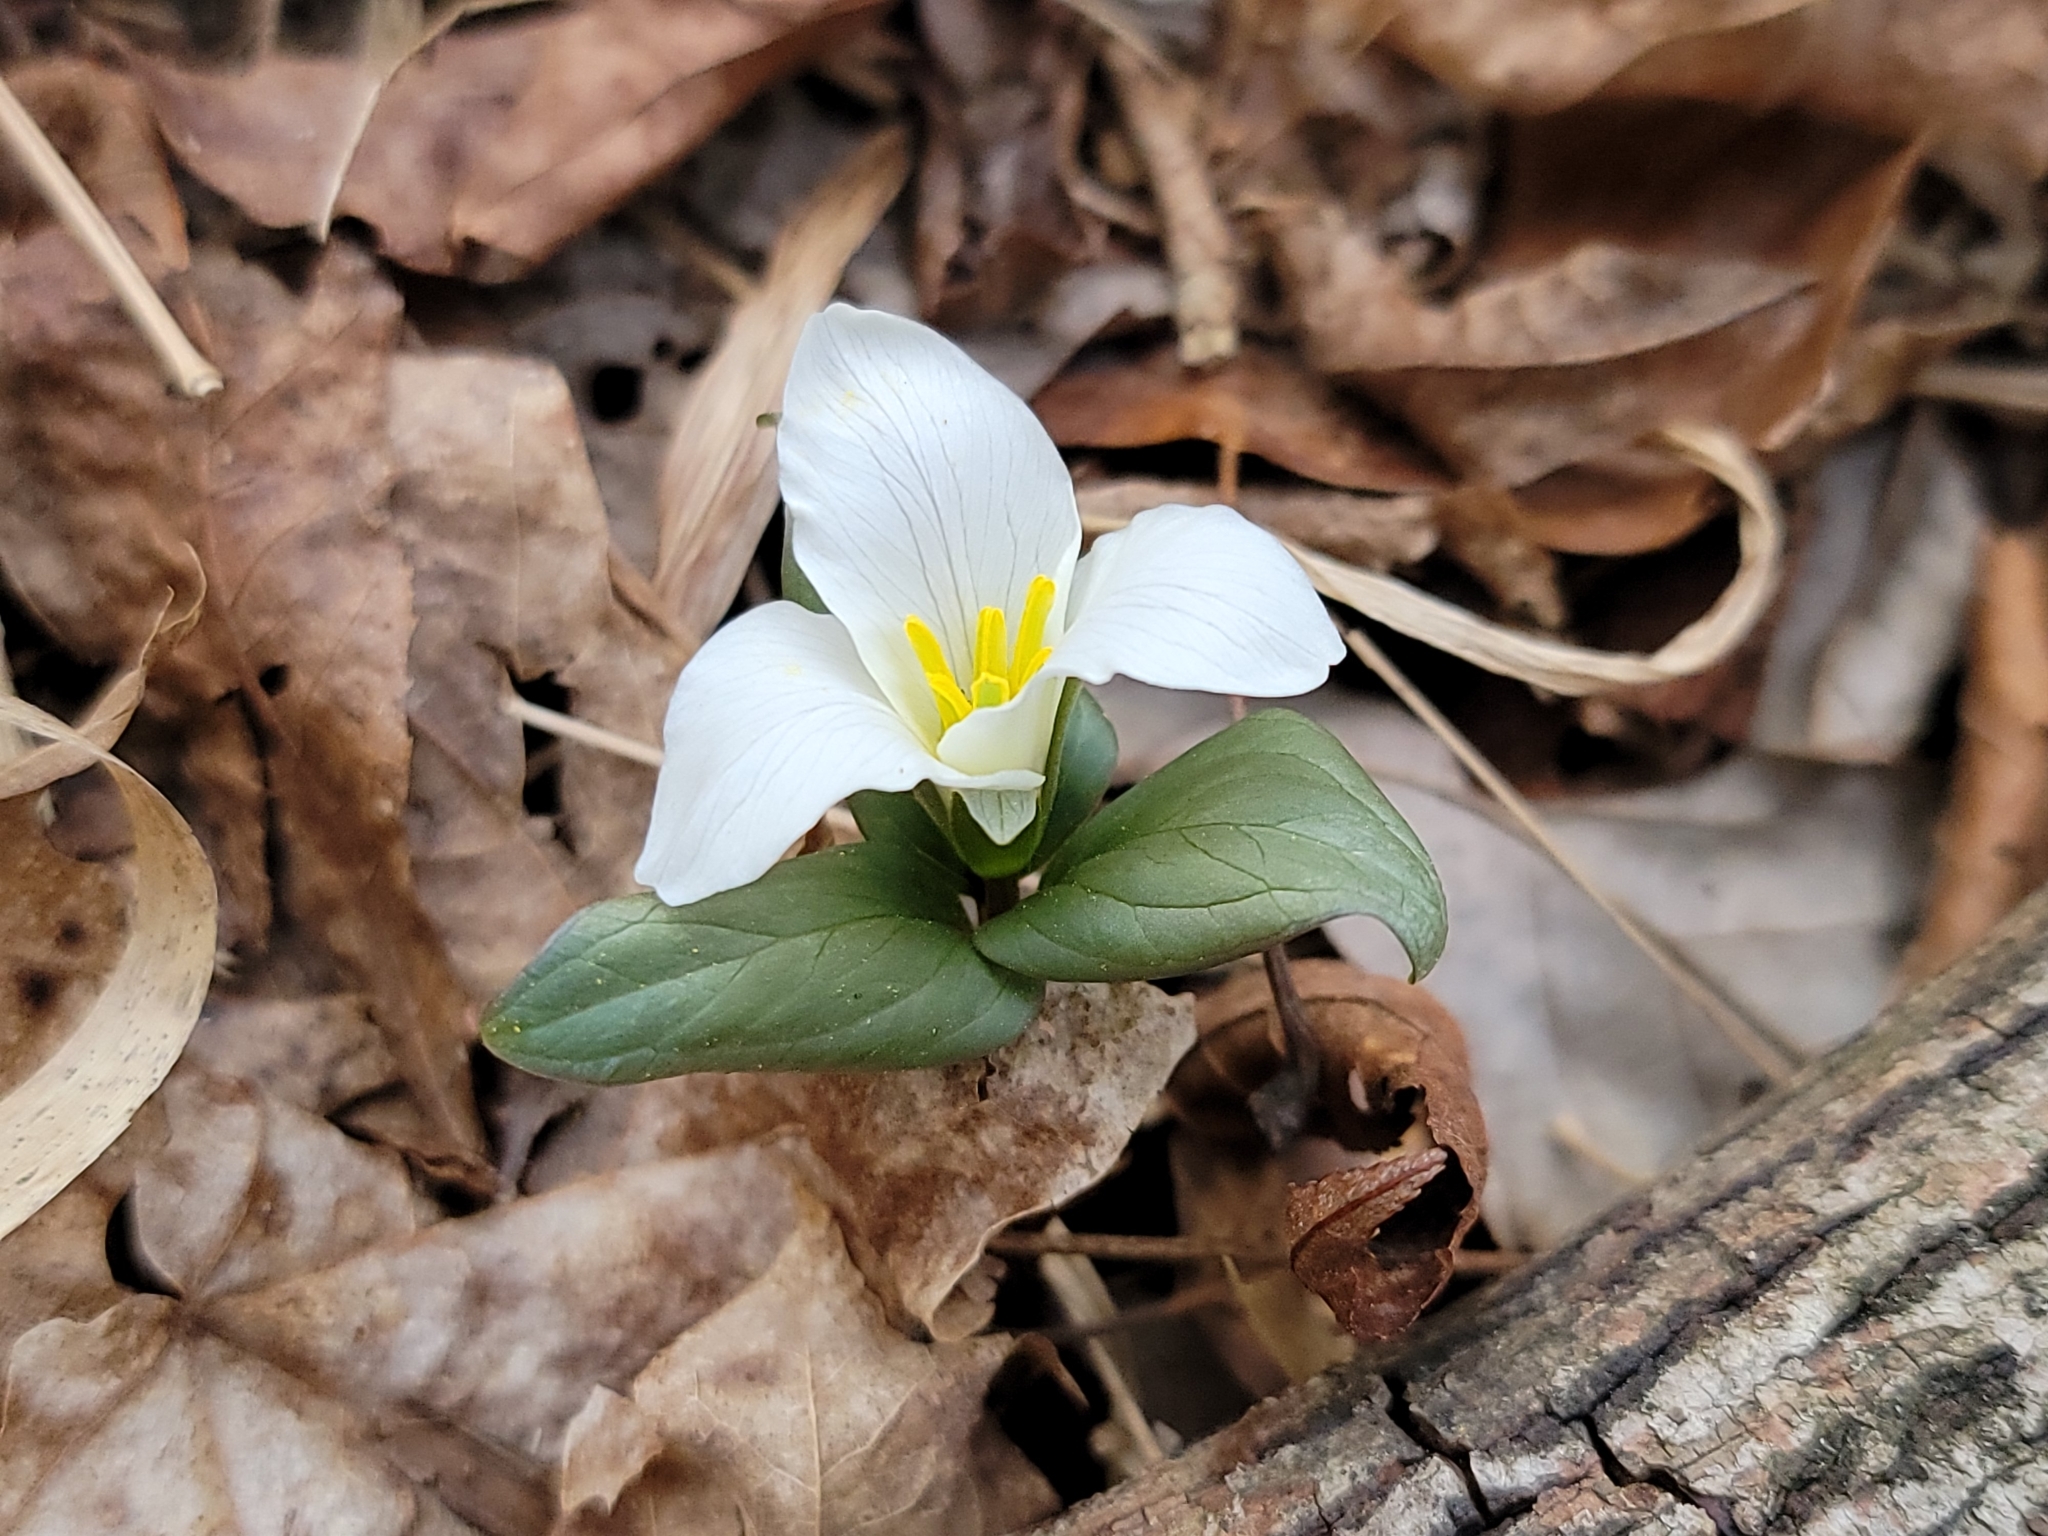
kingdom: Plantae
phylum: Tracheophyta
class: Liliopsida
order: Liliales
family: Melanthiaceae
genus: Trillium
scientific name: Trillium nivale
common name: Dwarf white trillium
